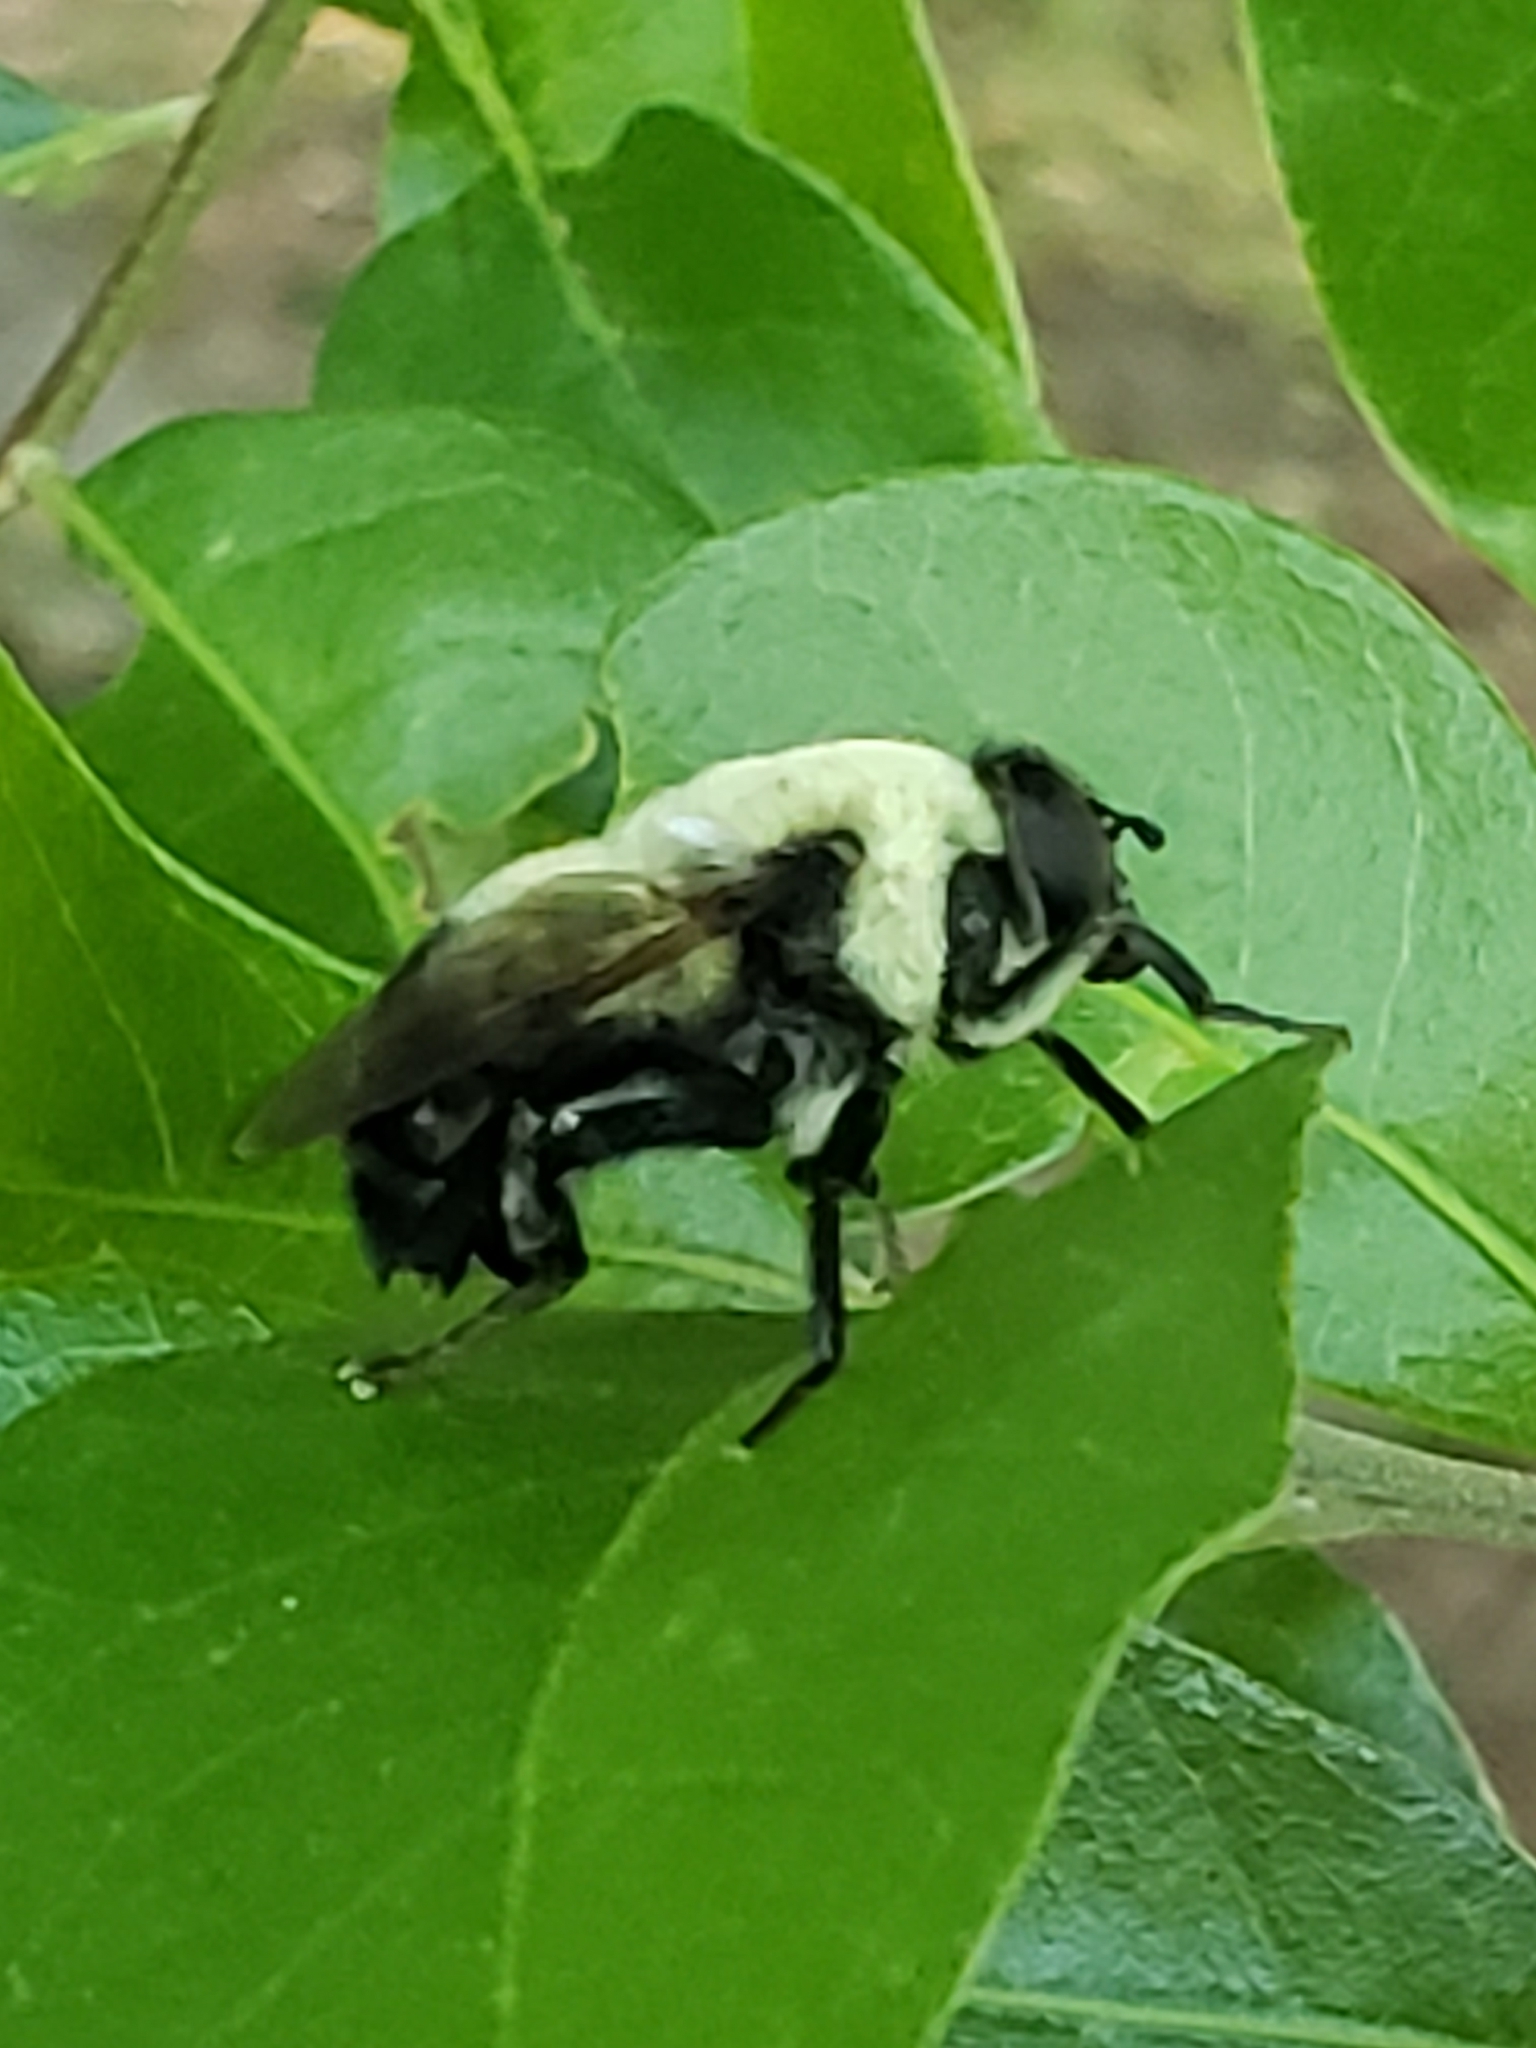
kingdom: Animalia
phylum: Arthropoda
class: Insecta
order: Diptera
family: Syrphidae
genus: Imatisma
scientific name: Imatisma posticata
